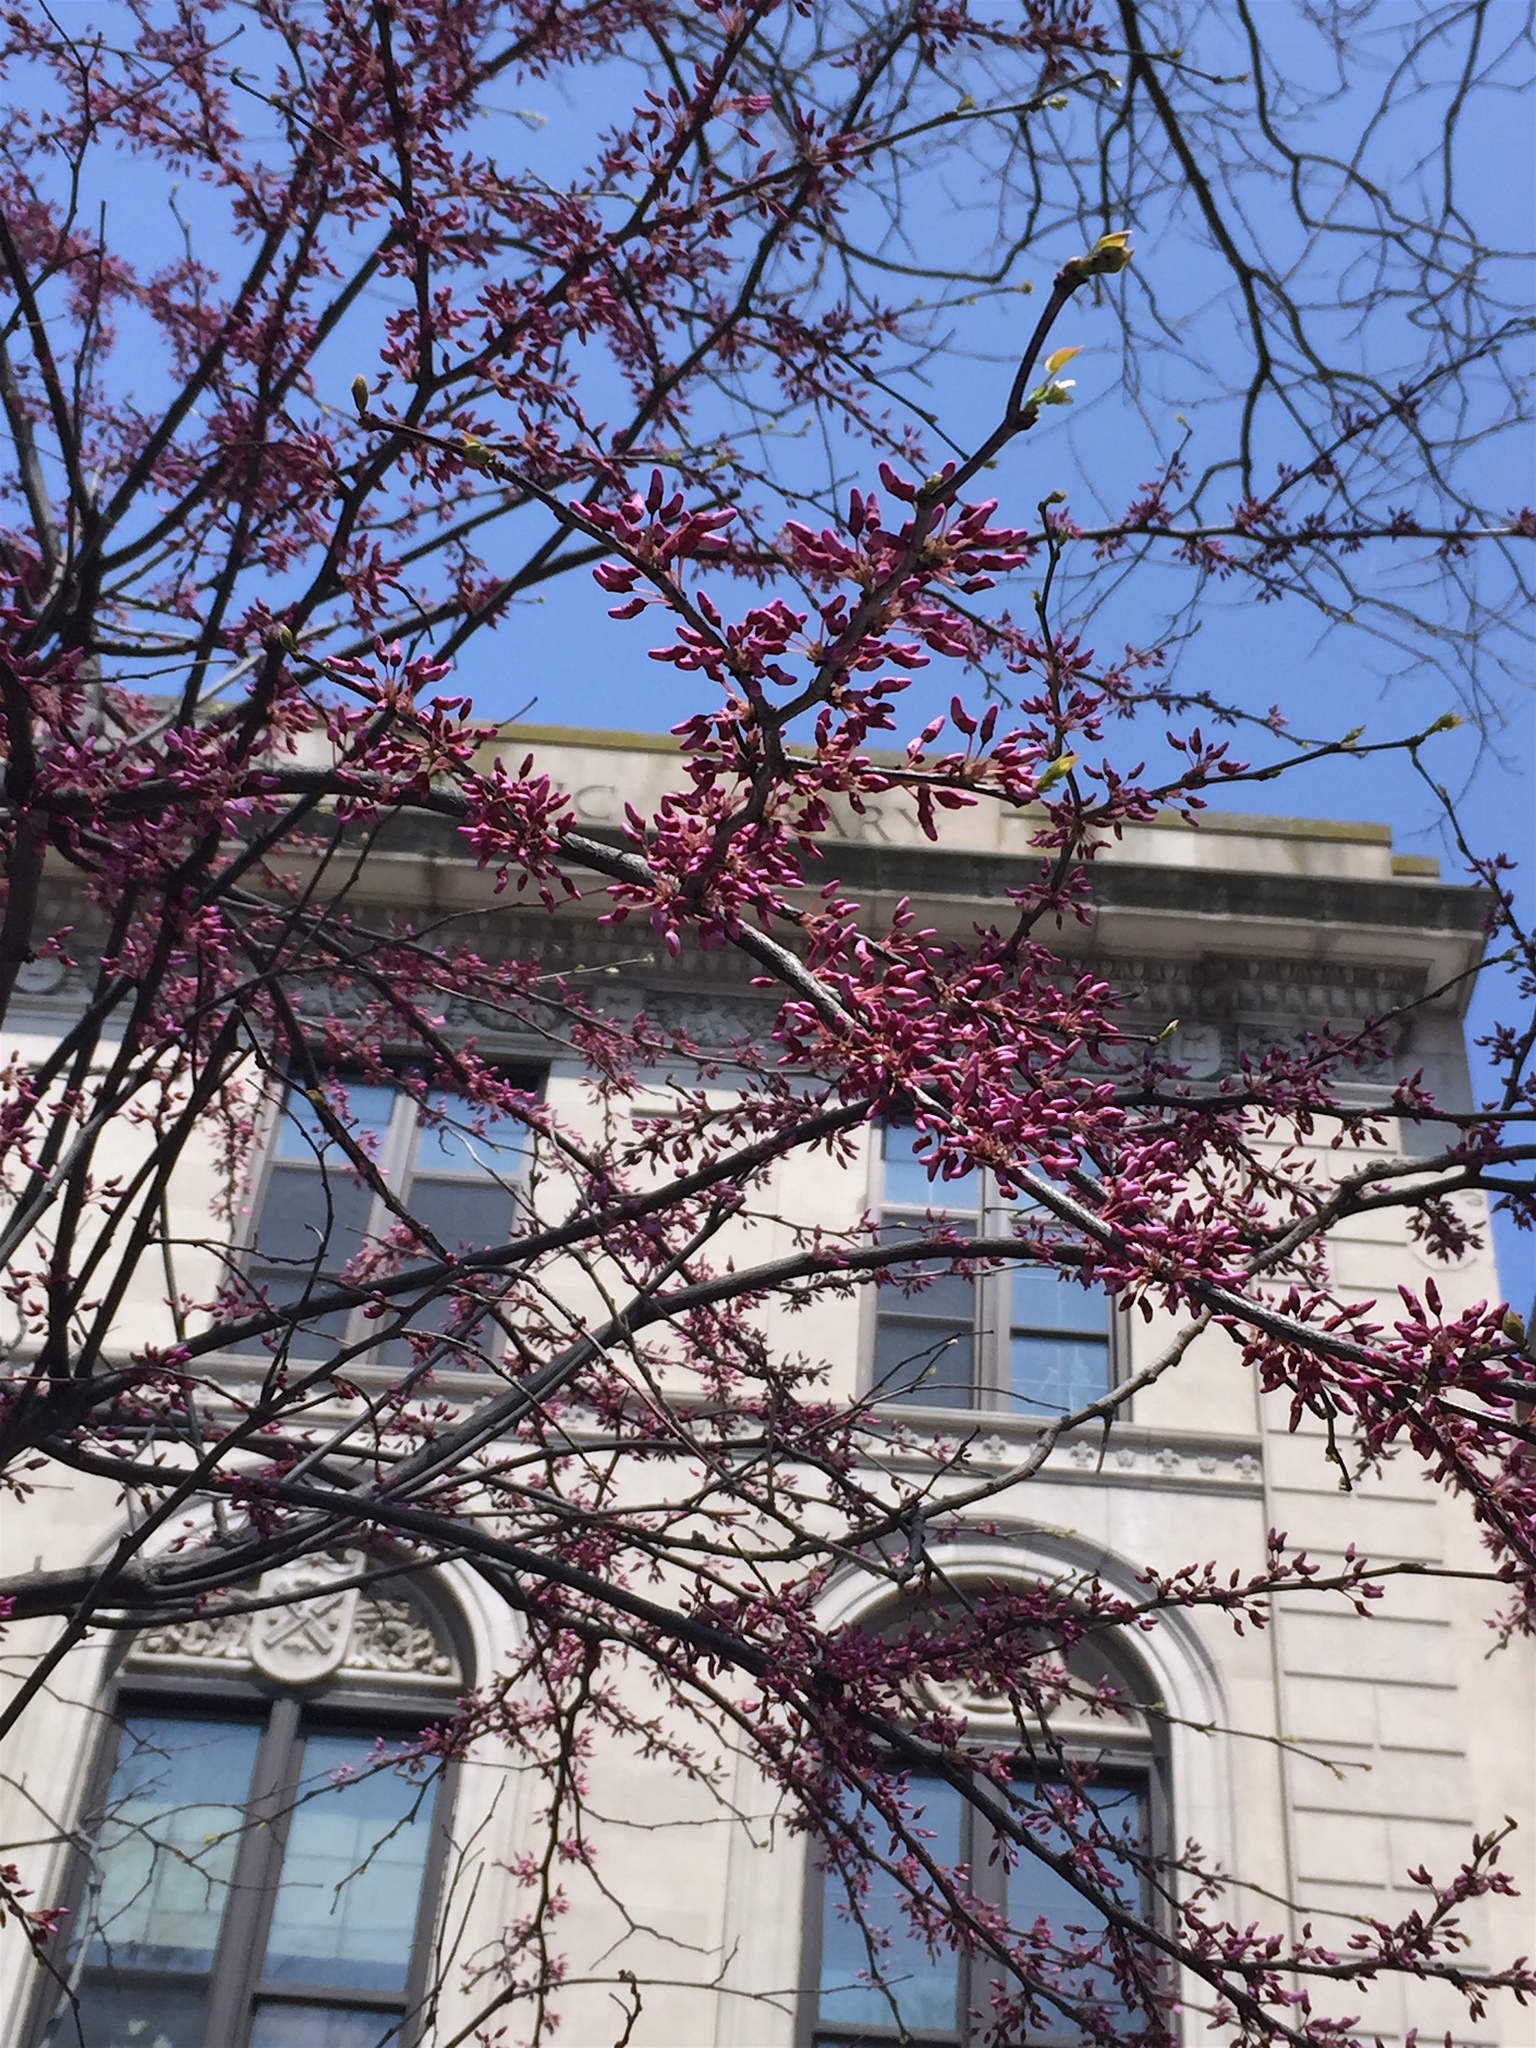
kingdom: Plantae
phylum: Tracheophyta
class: Magnoliopsida
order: Fabales
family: Fabaceae
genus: Cercis
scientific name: Cercis canadensis
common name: Eastern redbud
